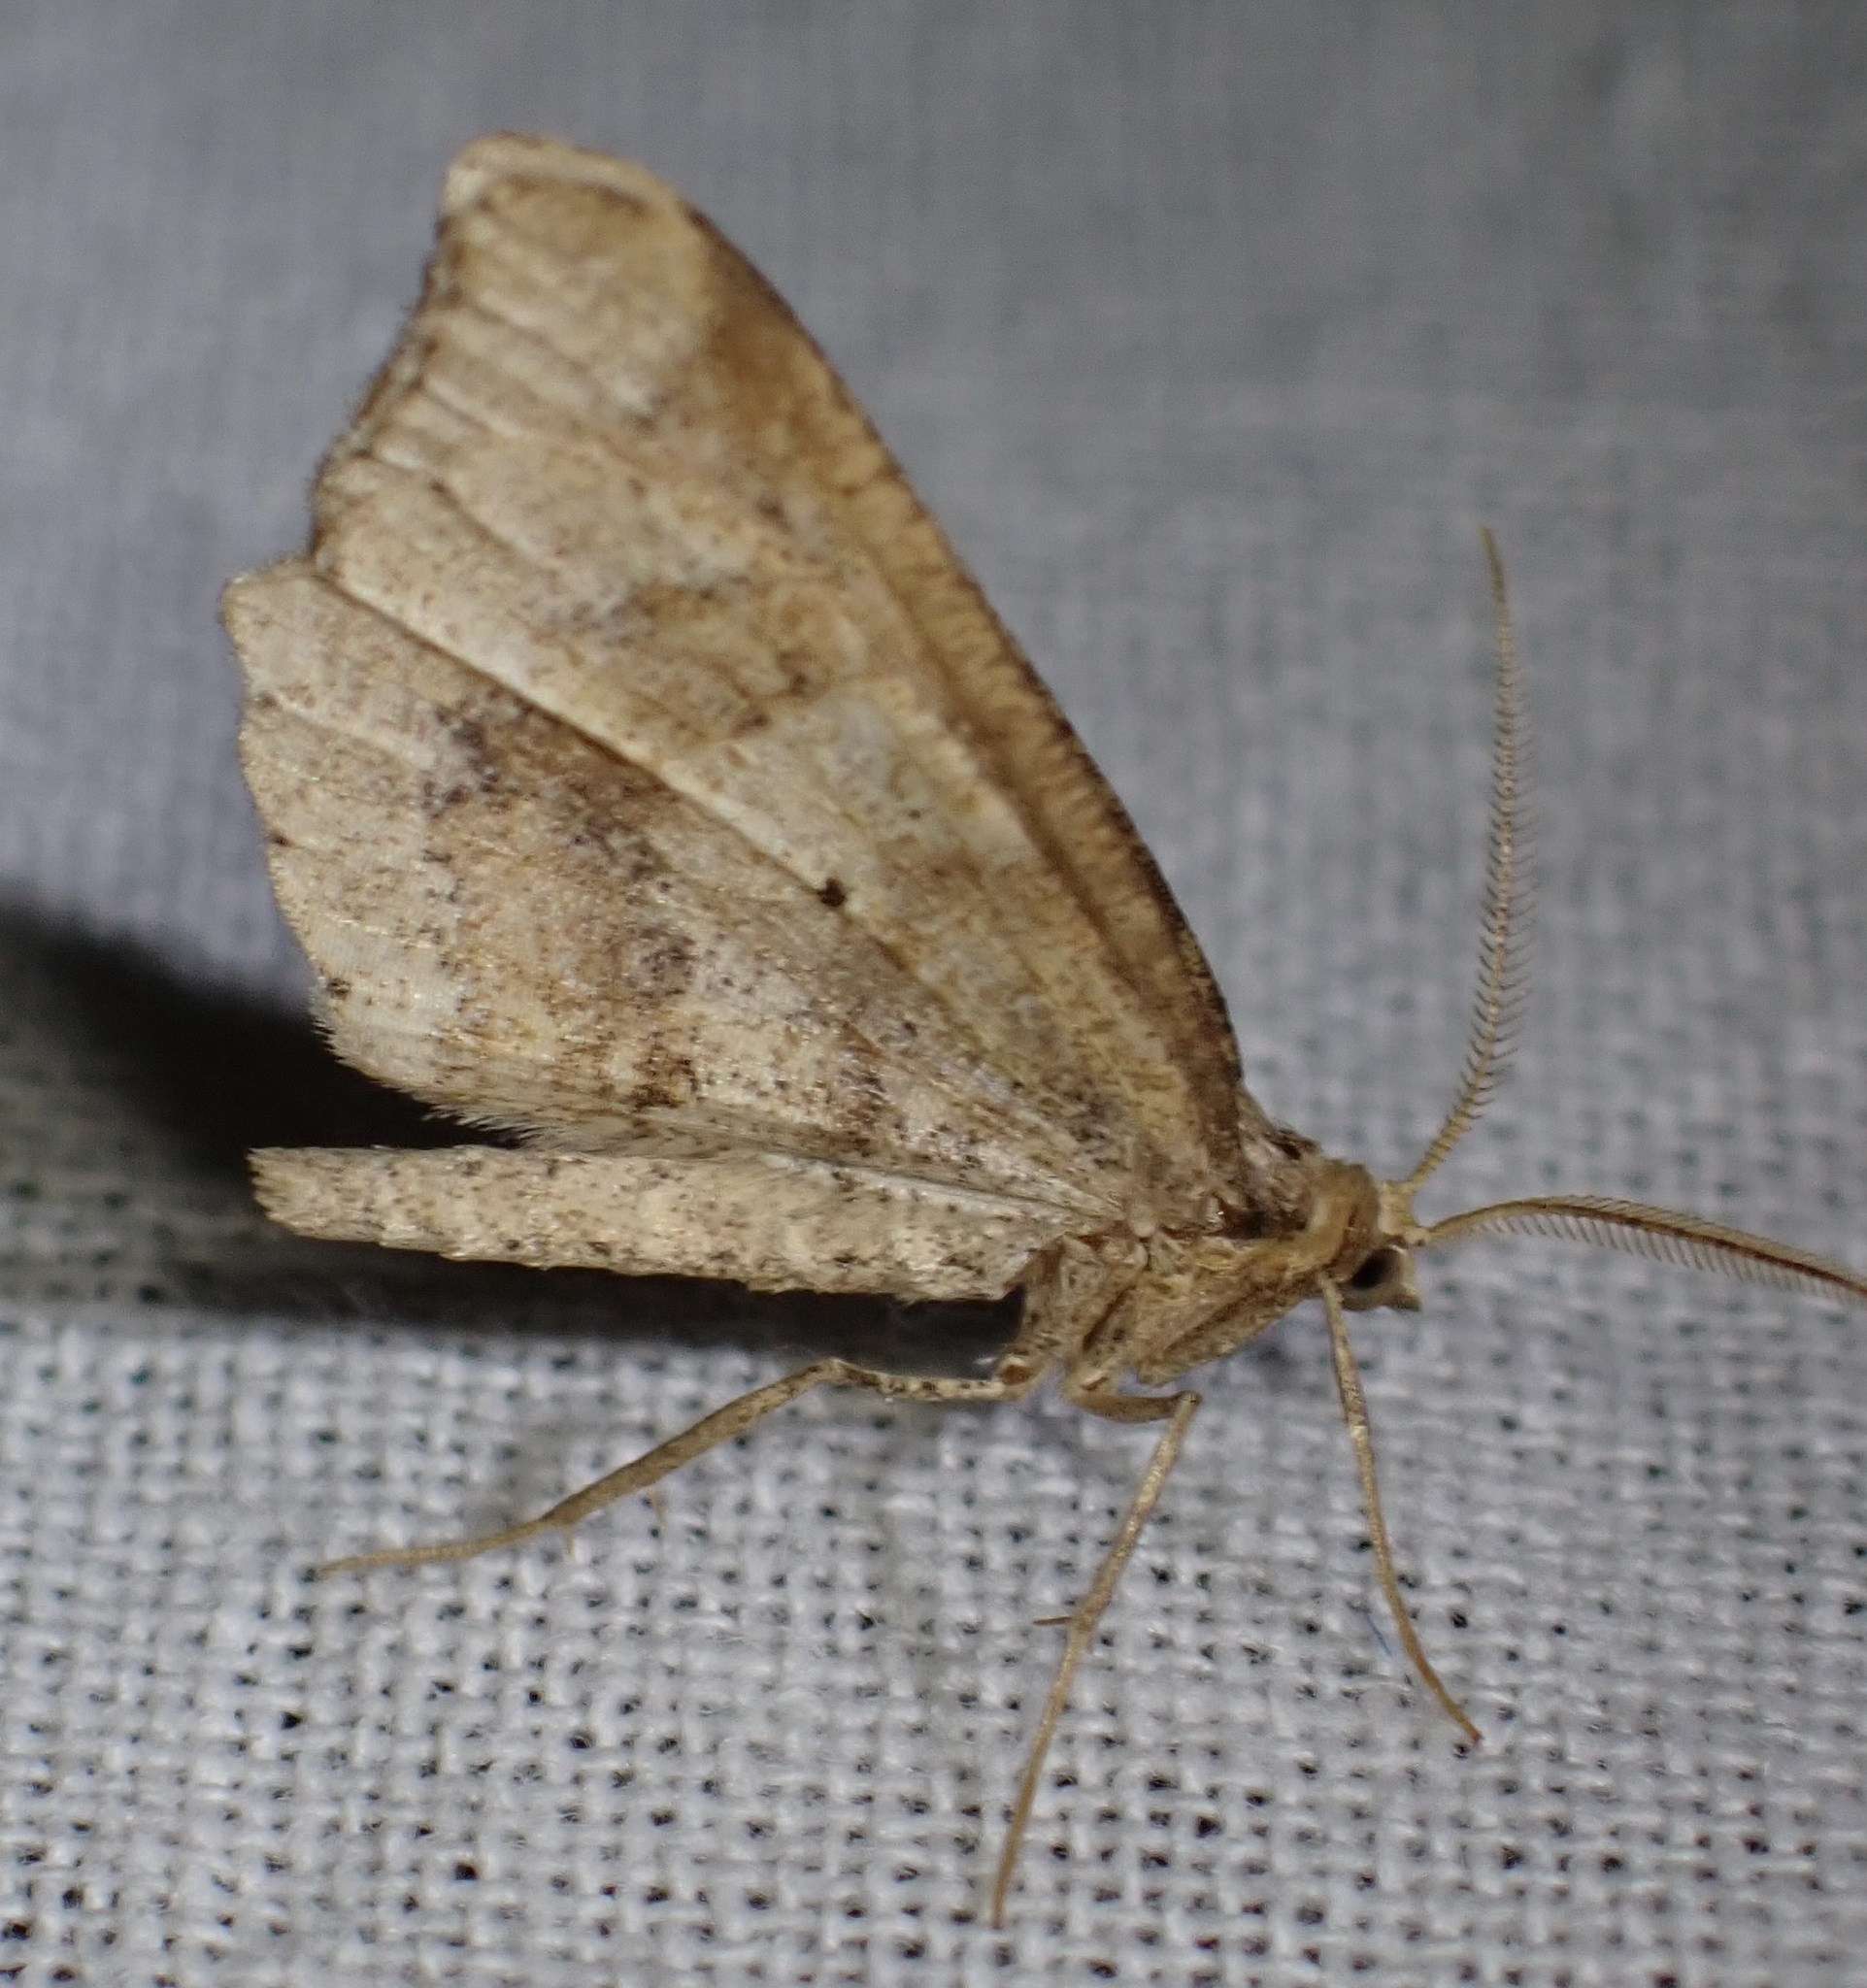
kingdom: Animalia
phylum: Arthropoda
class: Insecta
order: Lepidoptera
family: Geometridae
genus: Macaria
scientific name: Macaria marcescaria
